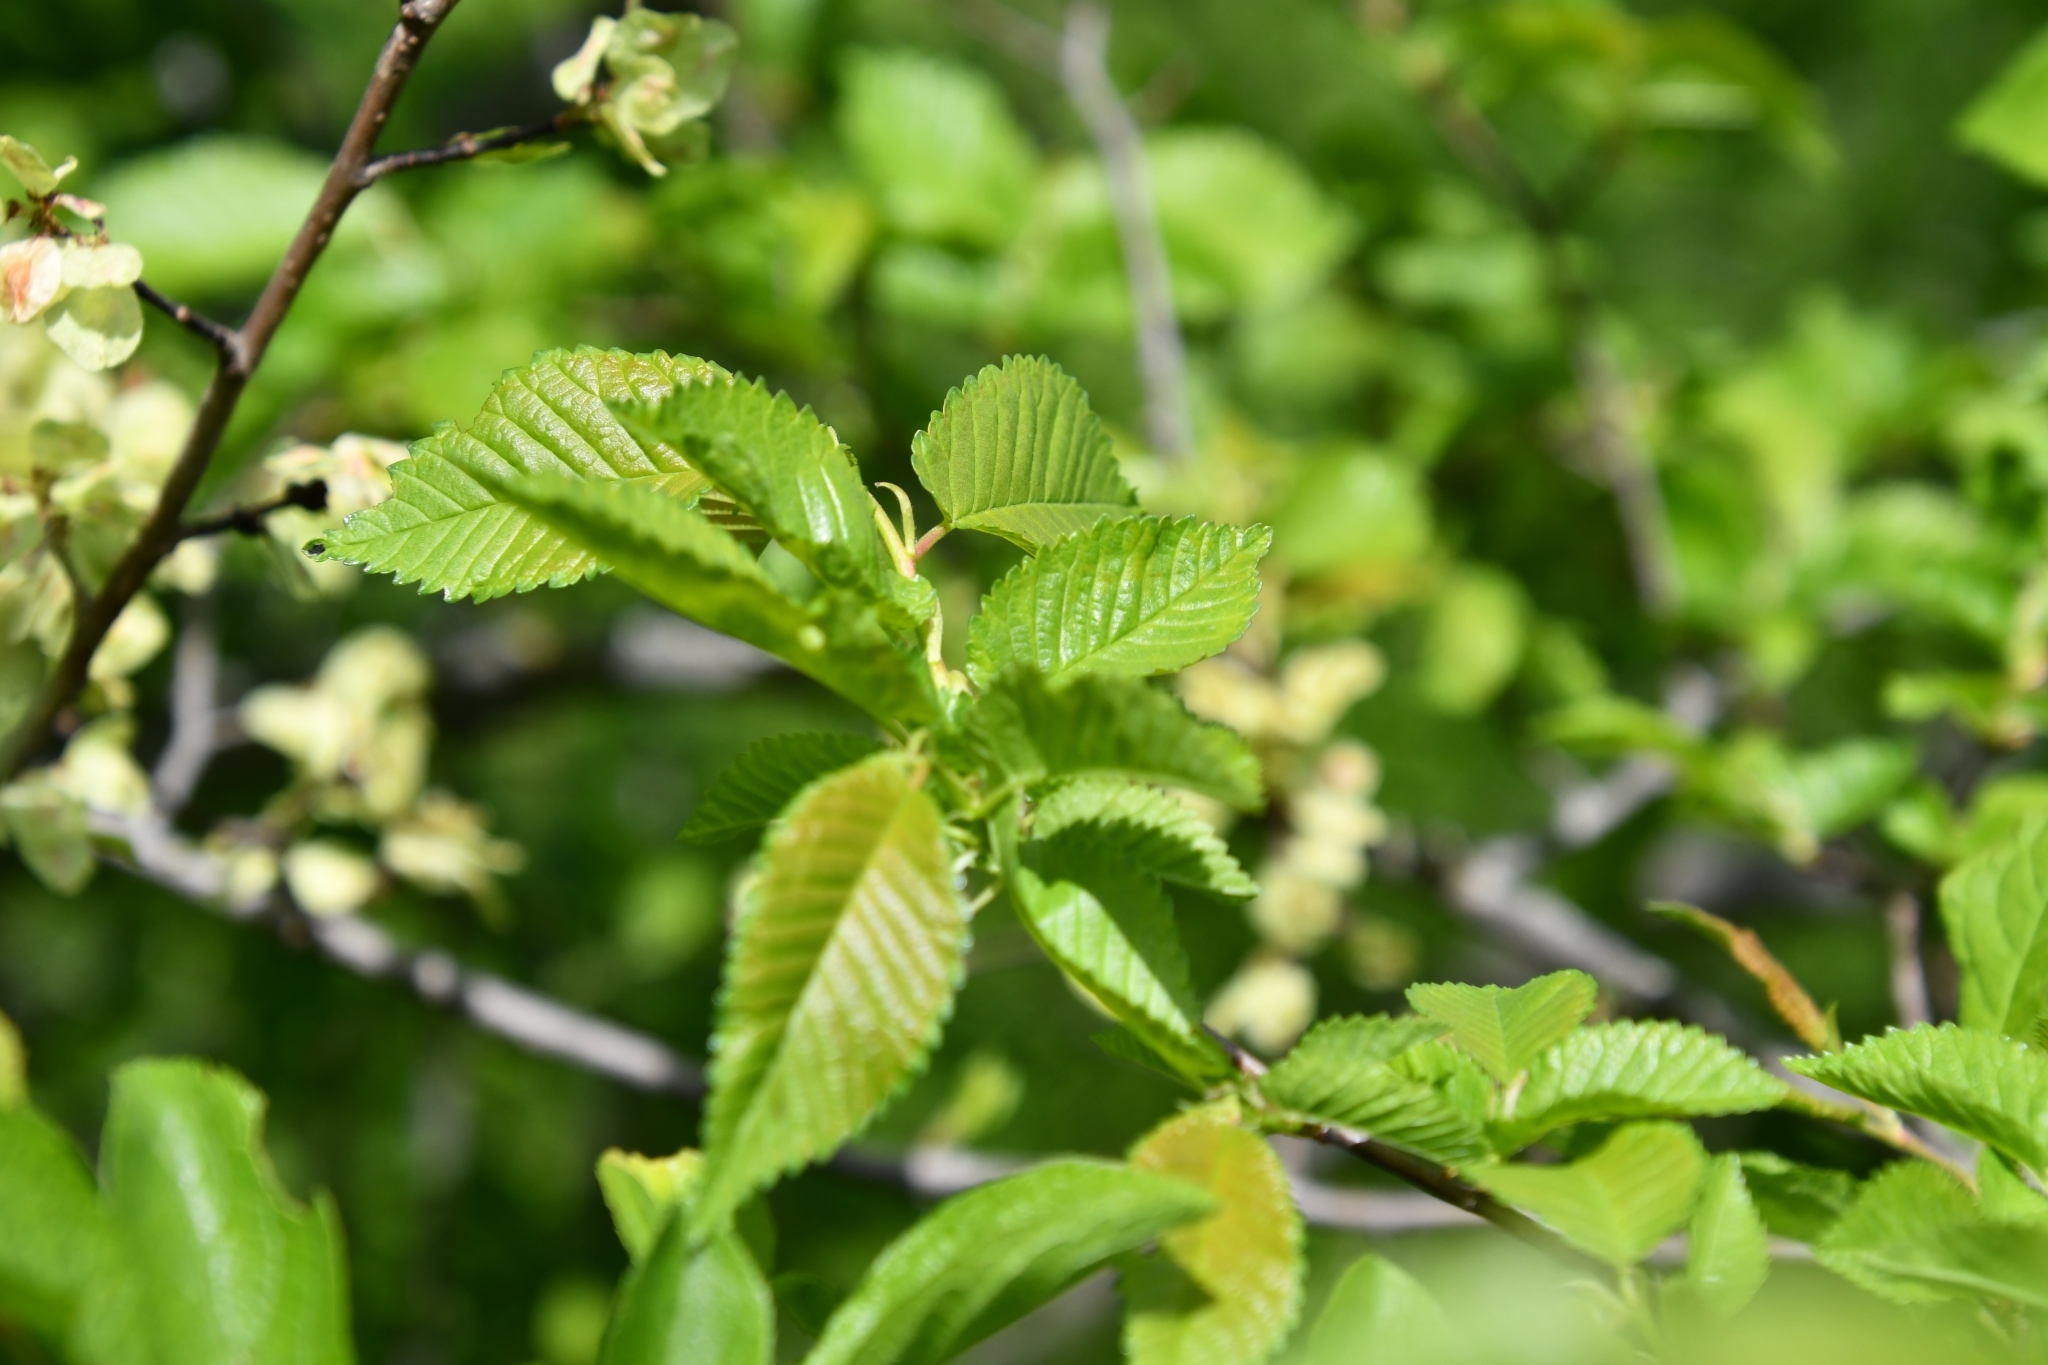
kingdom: Plantae
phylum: Tracheophyta
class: Magnoliopsida
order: Rosales
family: Ulmaceae
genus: Ulmus
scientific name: Ulmus minor
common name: Small-leaved elm
